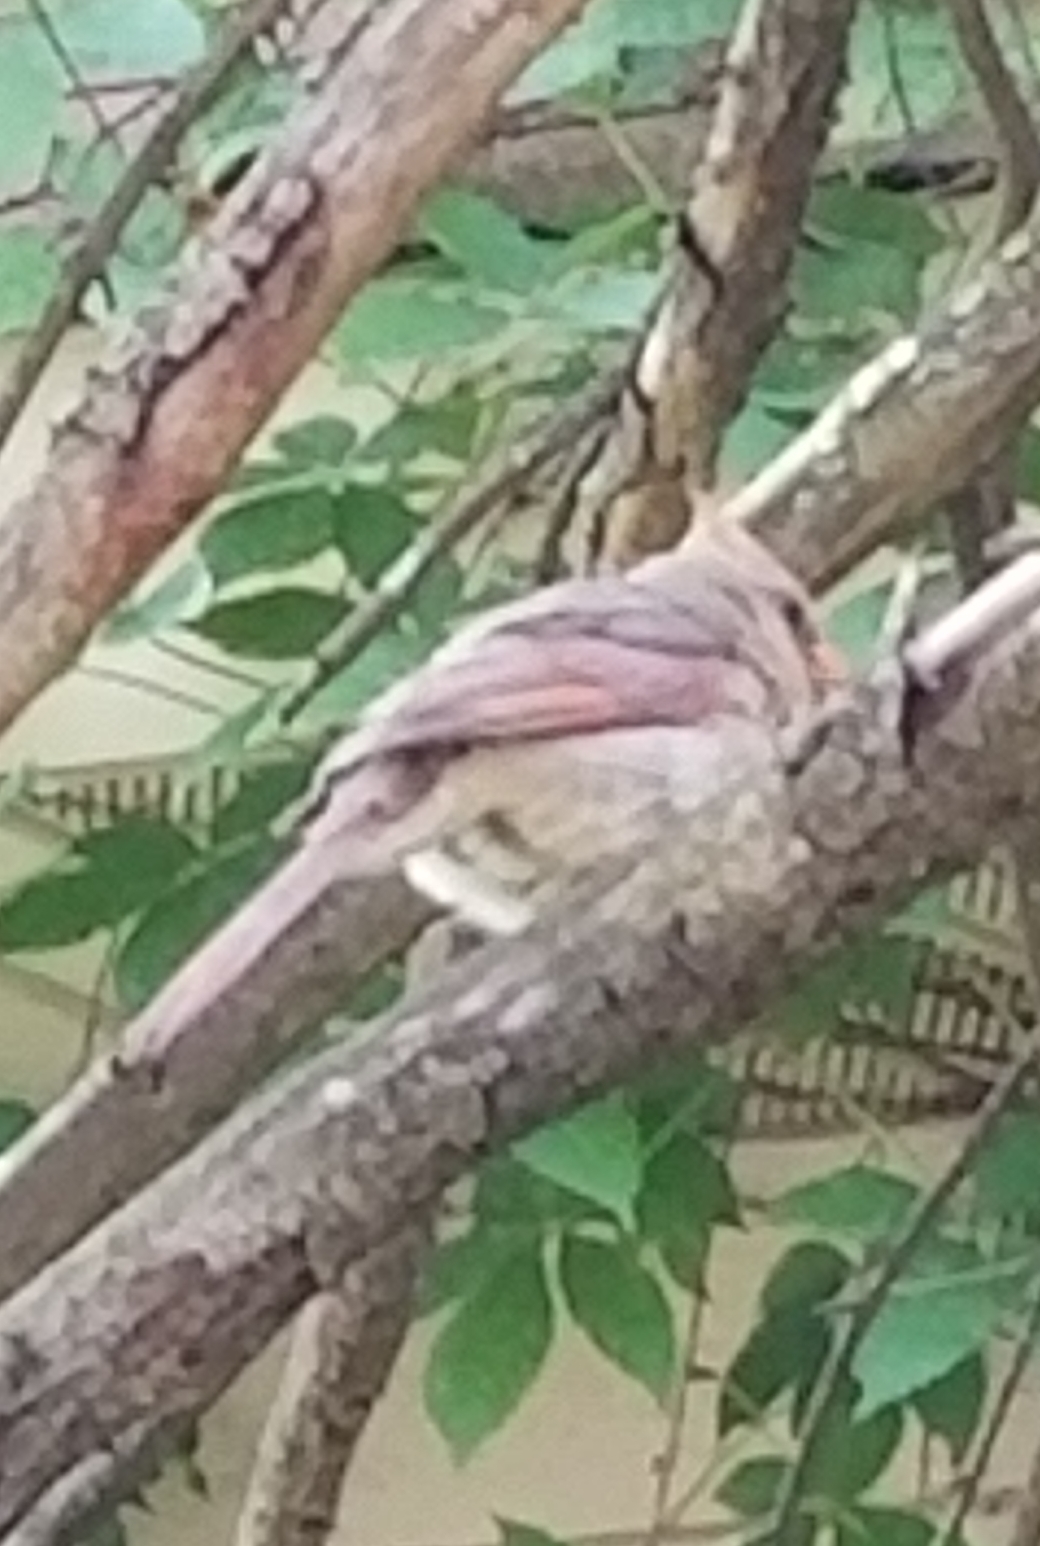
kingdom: Animalia
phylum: Chordata
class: Aves
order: Passeriformes
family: Cardinalidae
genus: Cardinalis
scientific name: Cardinalis cardinalis
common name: Northern cardinal
